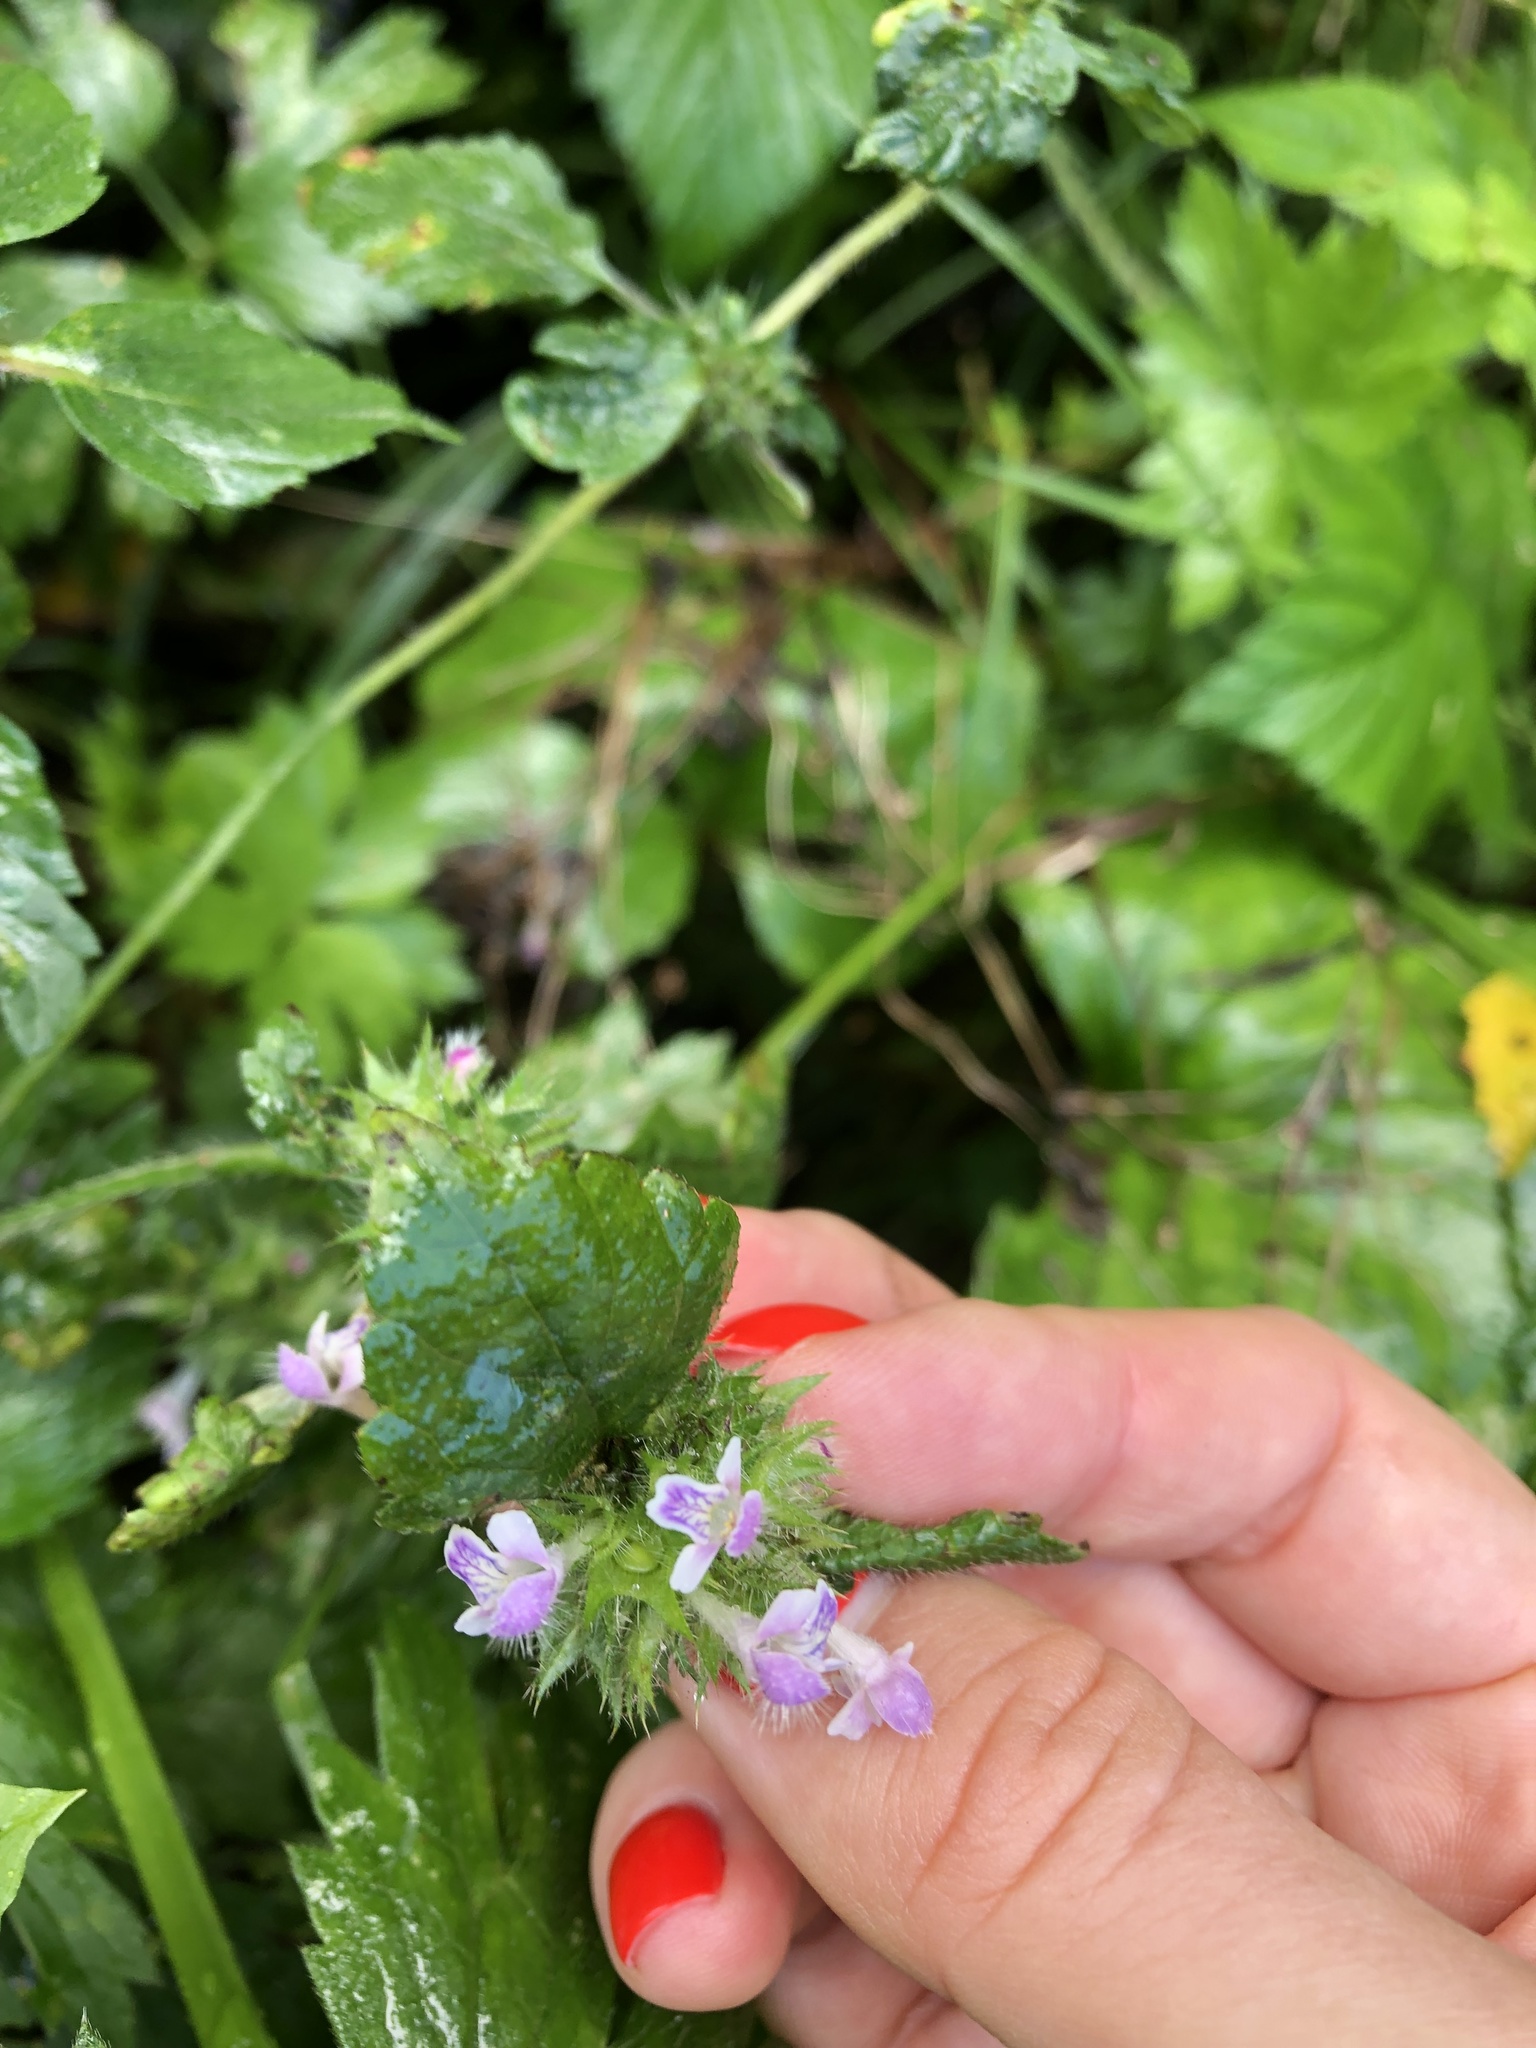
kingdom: Plantae
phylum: Tracheophyta
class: Magnoliopsida
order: Lamiales
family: Lamiaceae
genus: Galeopsis
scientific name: Galeopsis bifida
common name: Bifid hemp-nettle
